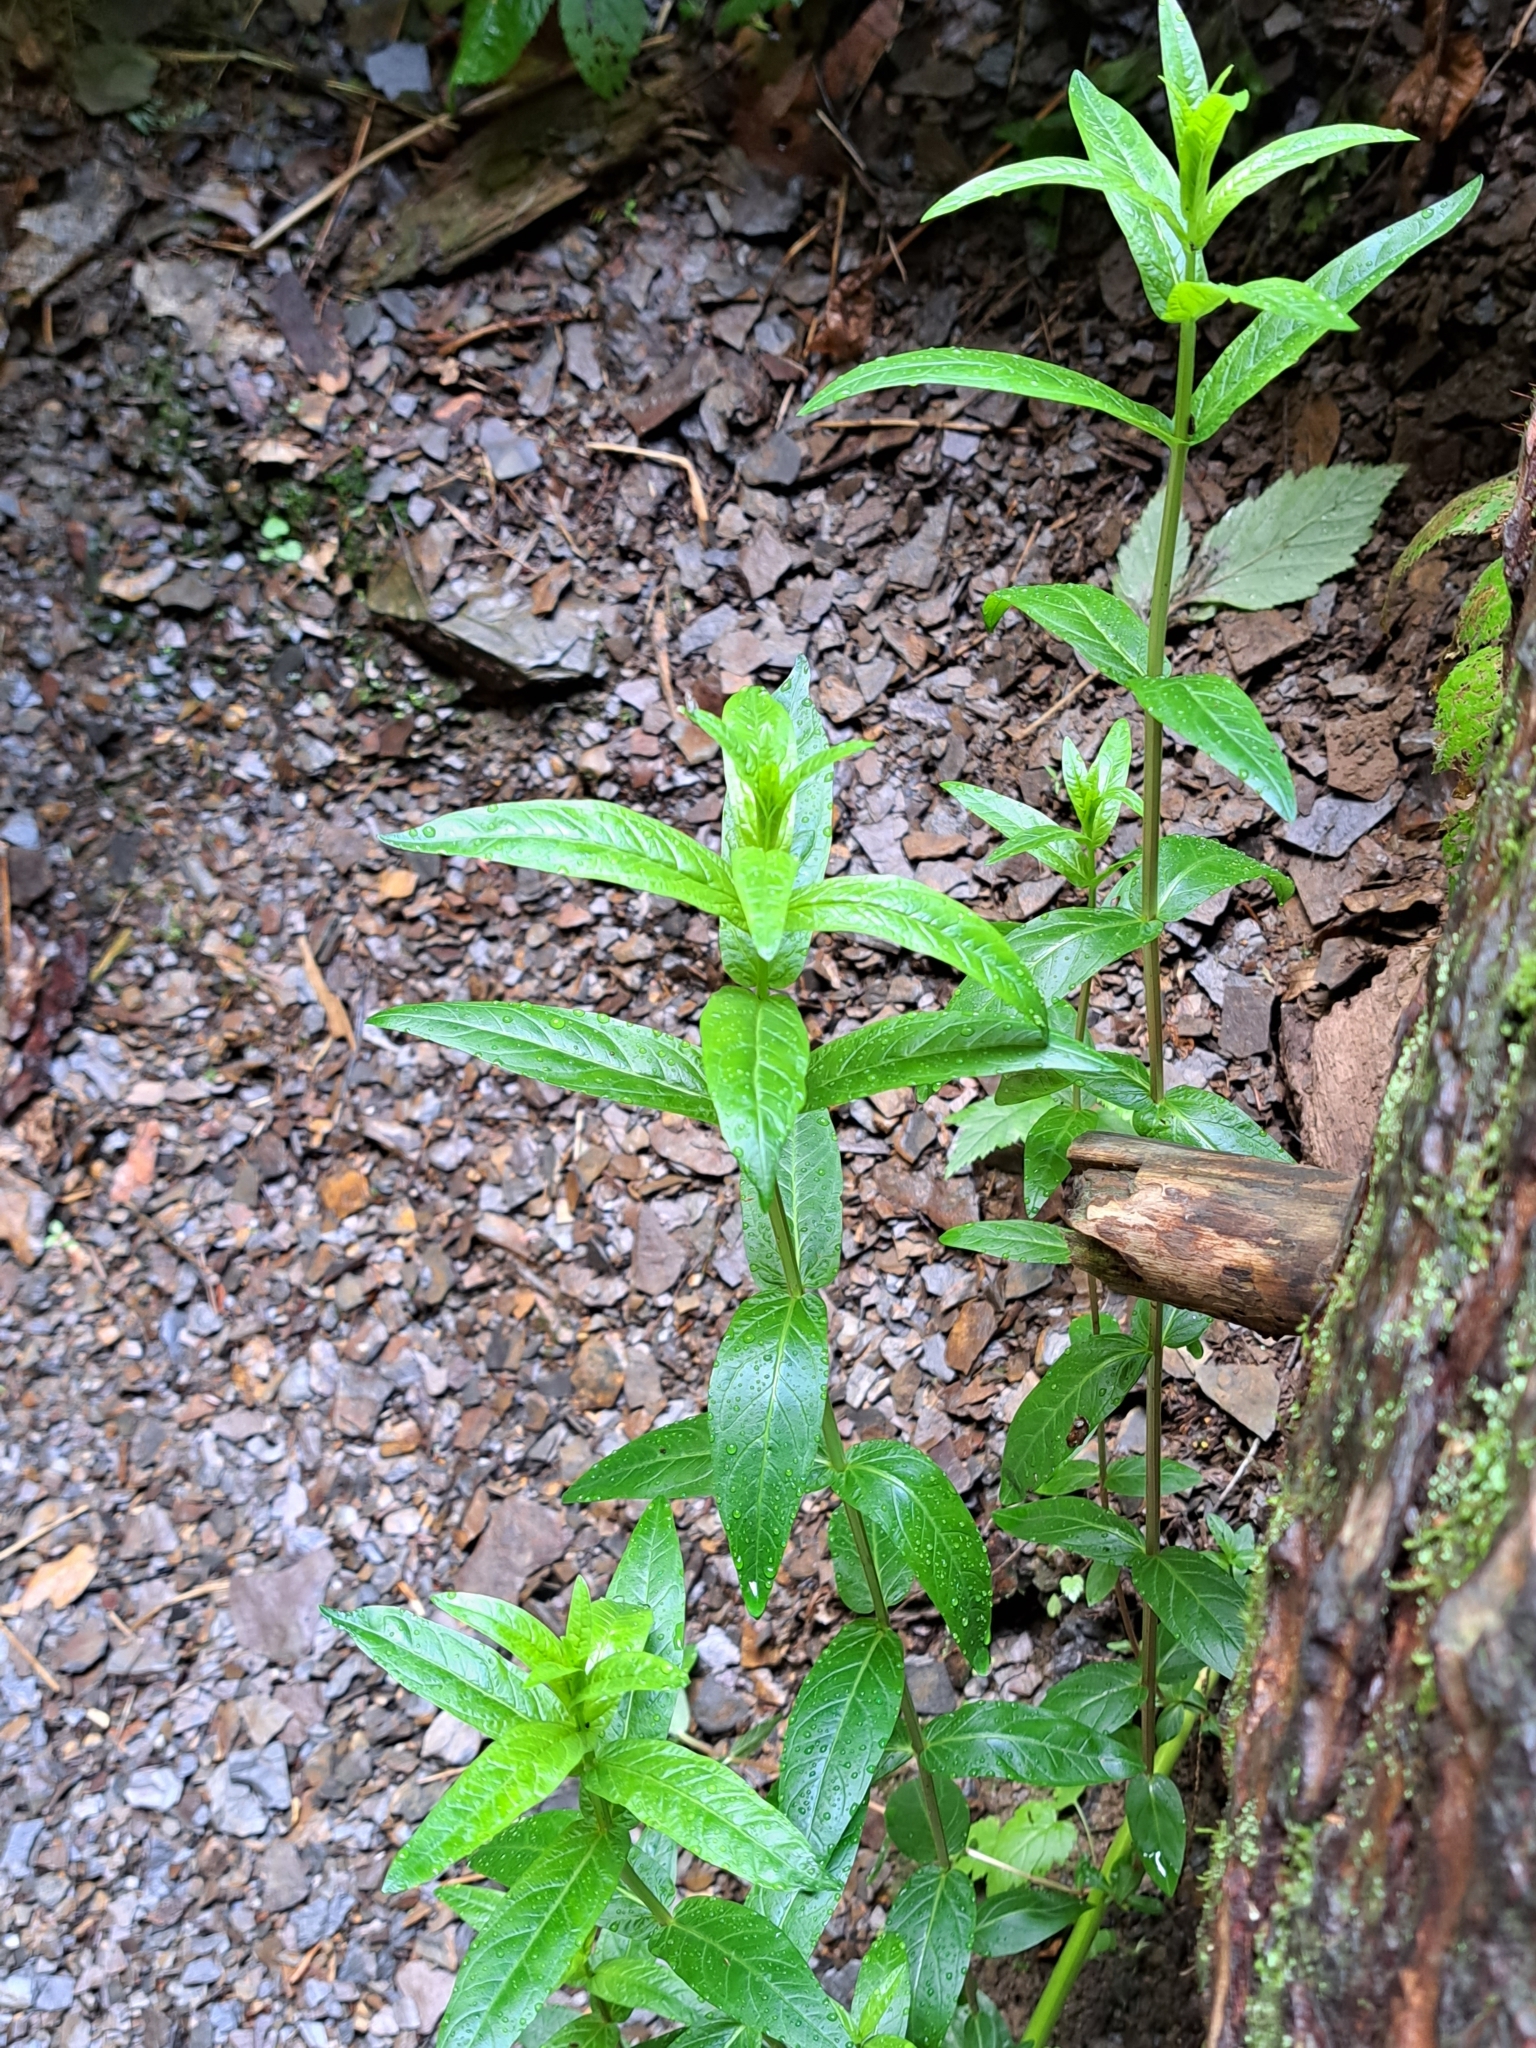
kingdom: Plantae
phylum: Tracheophyta
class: Magnoliopsida
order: Myrtales
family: Lythraceae
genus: Lythrum
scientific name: Lythrum salicaria
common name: Purple loosestrife
